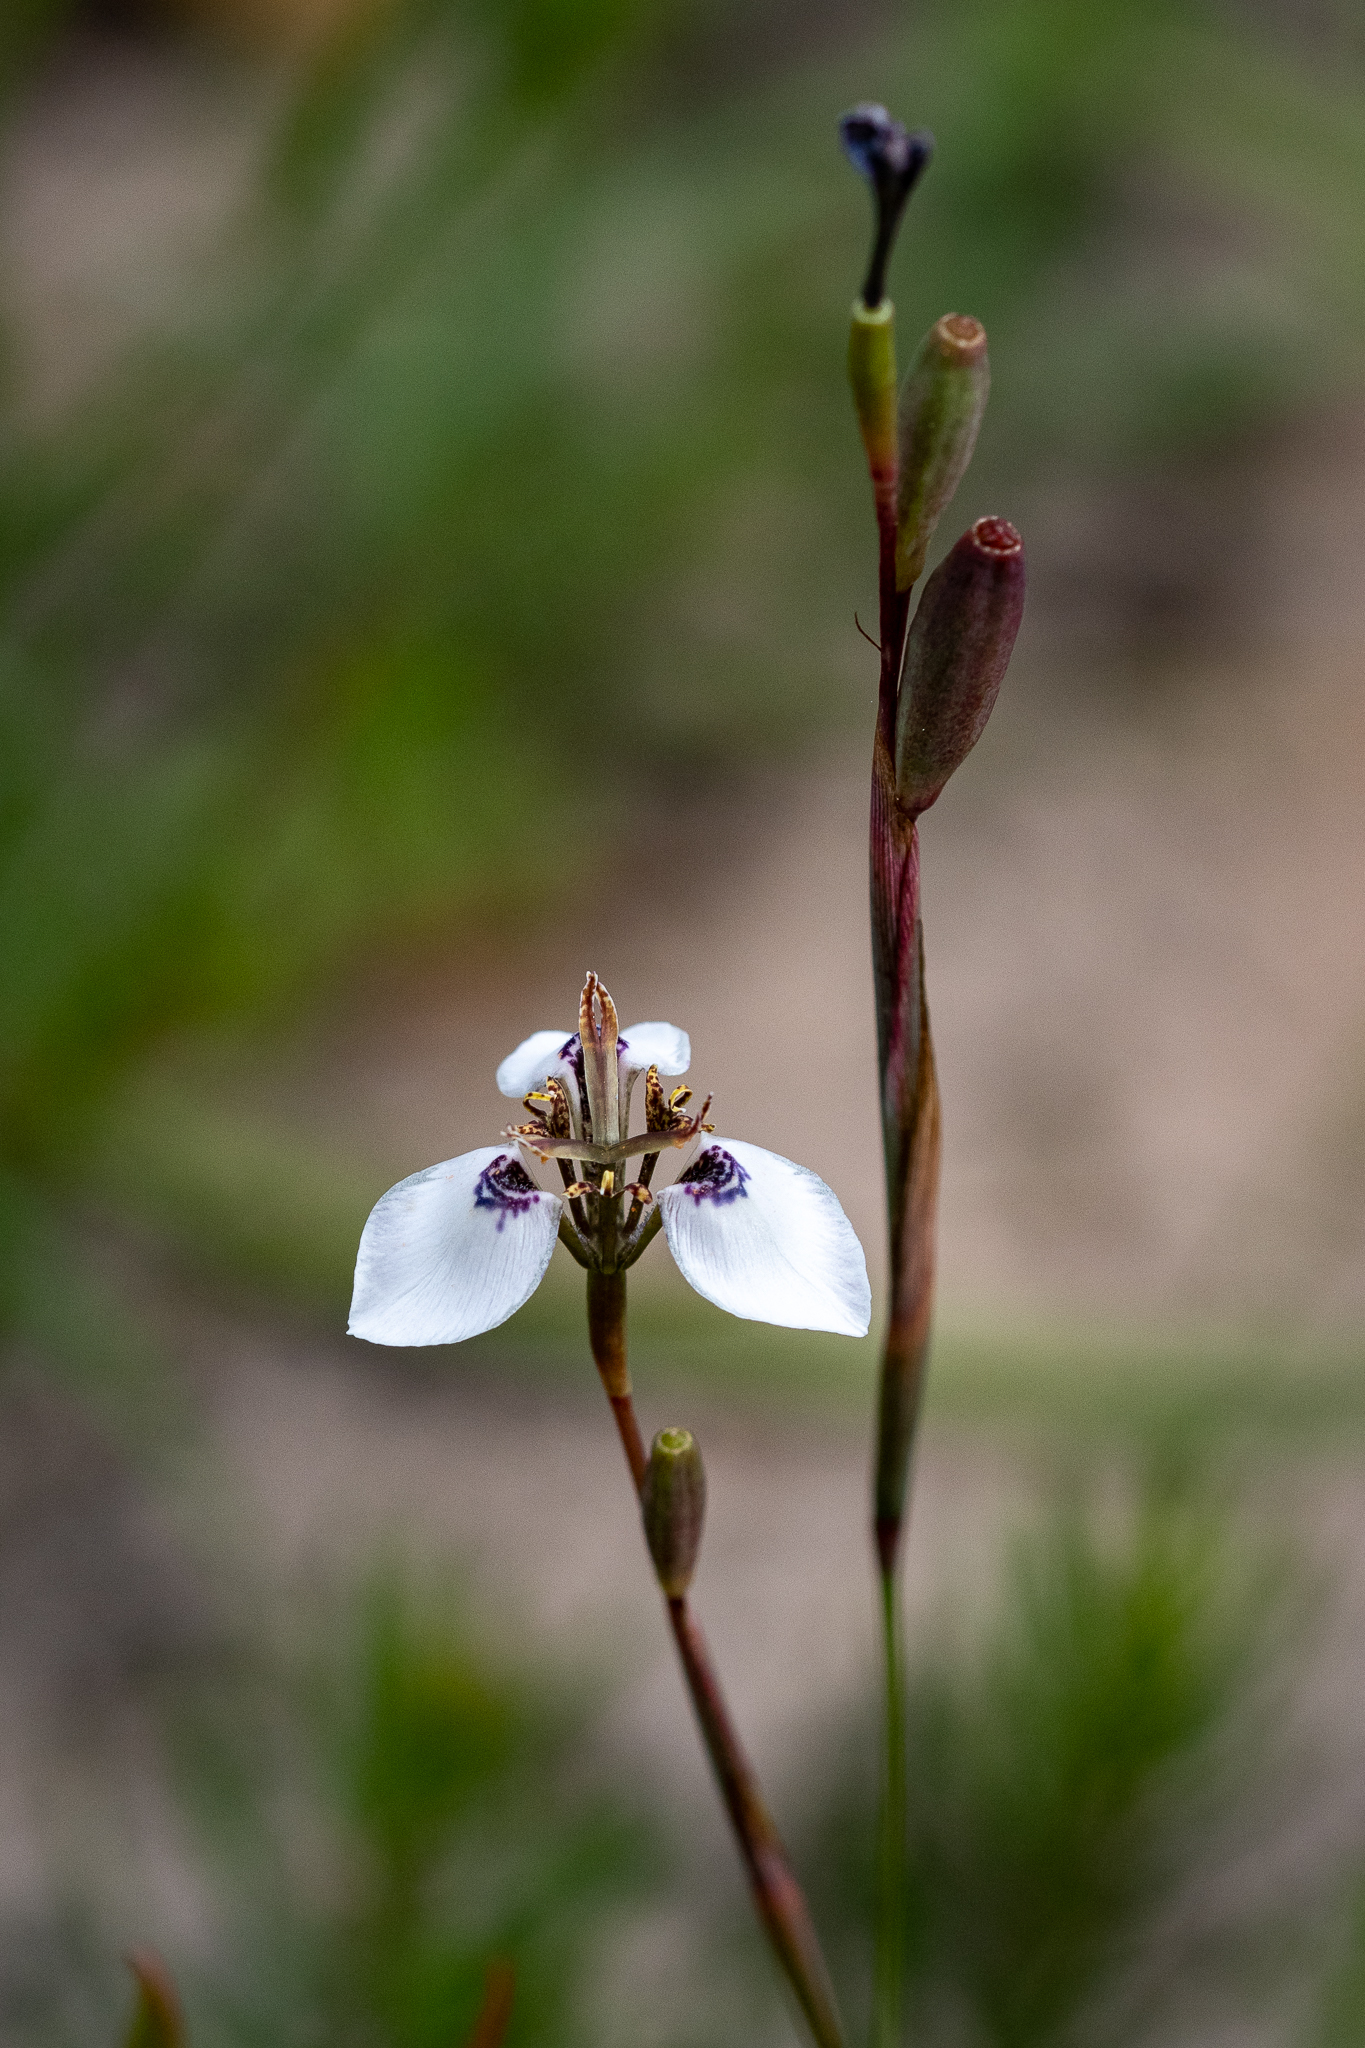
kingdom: Plantae
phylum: Tracheophyta
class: Liliopsida
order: Asparagales
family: Iridaceae
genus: Moraea
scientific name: Moraea unguiculata
